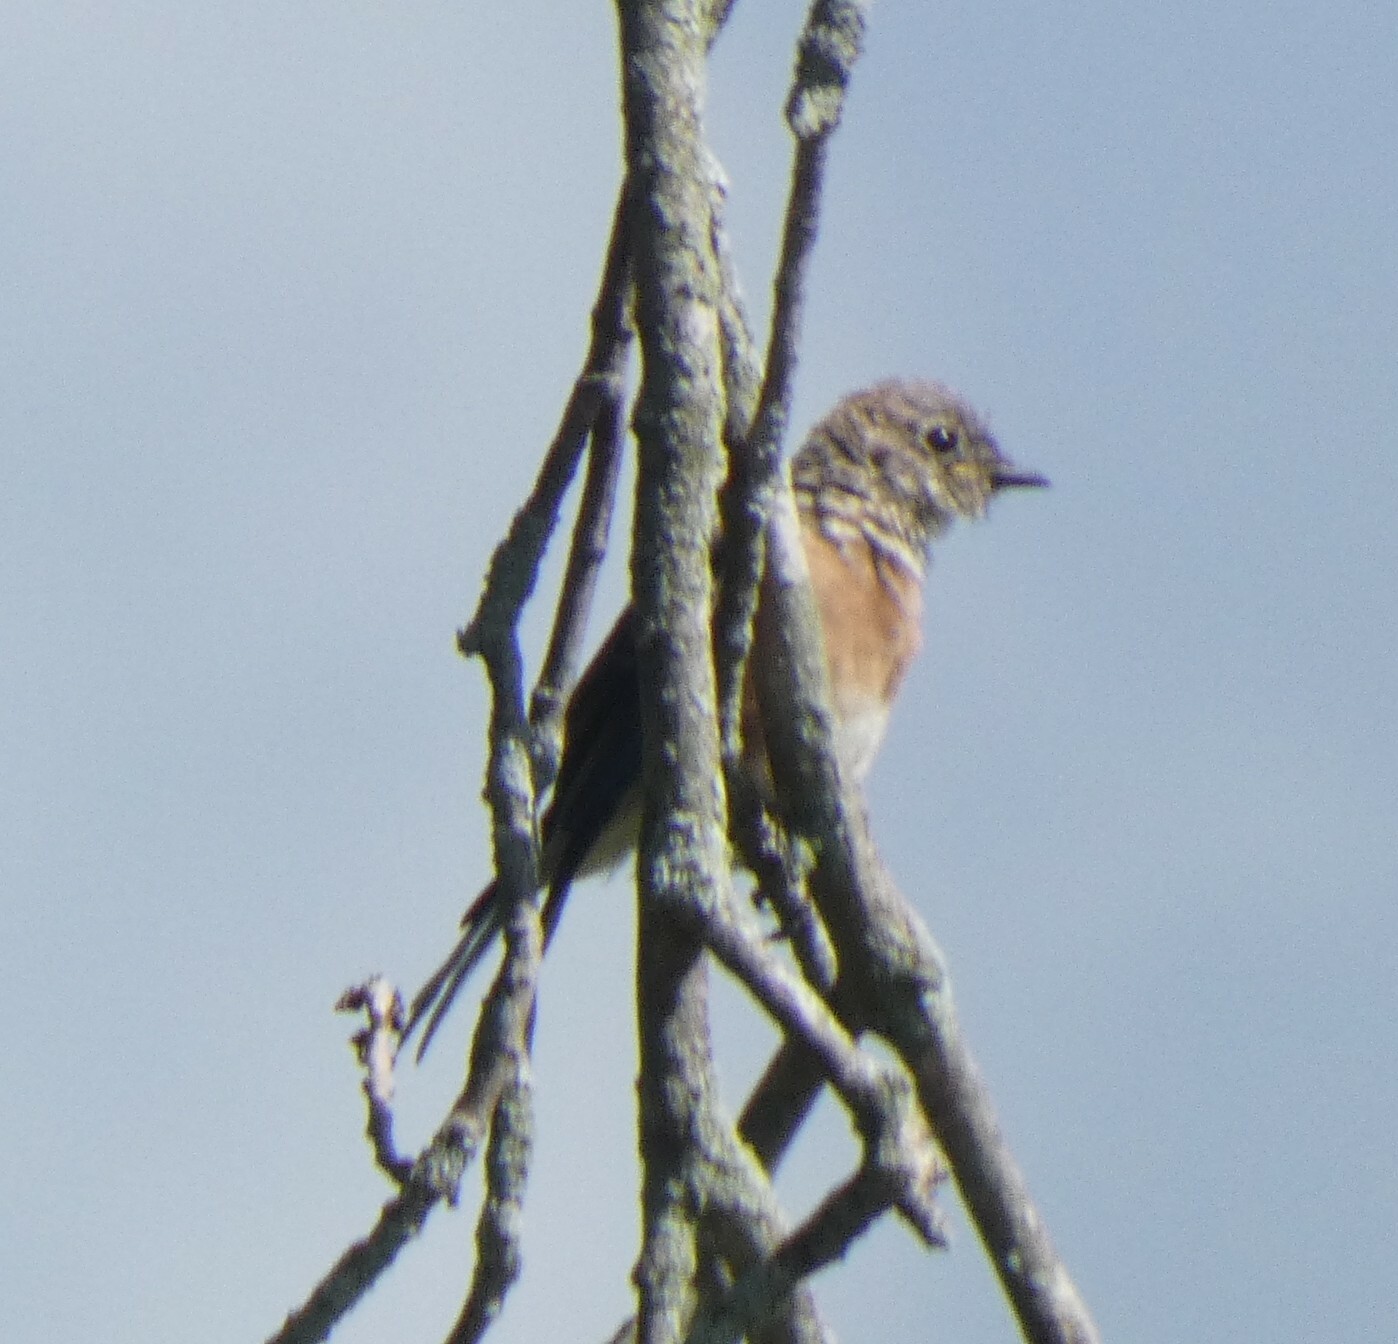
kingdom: Animalia
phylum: Chordata
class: Aves
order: Passeriformes
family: Turdidae
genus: Sialia
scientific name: Sialia sialis
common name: Eastern bluebird
